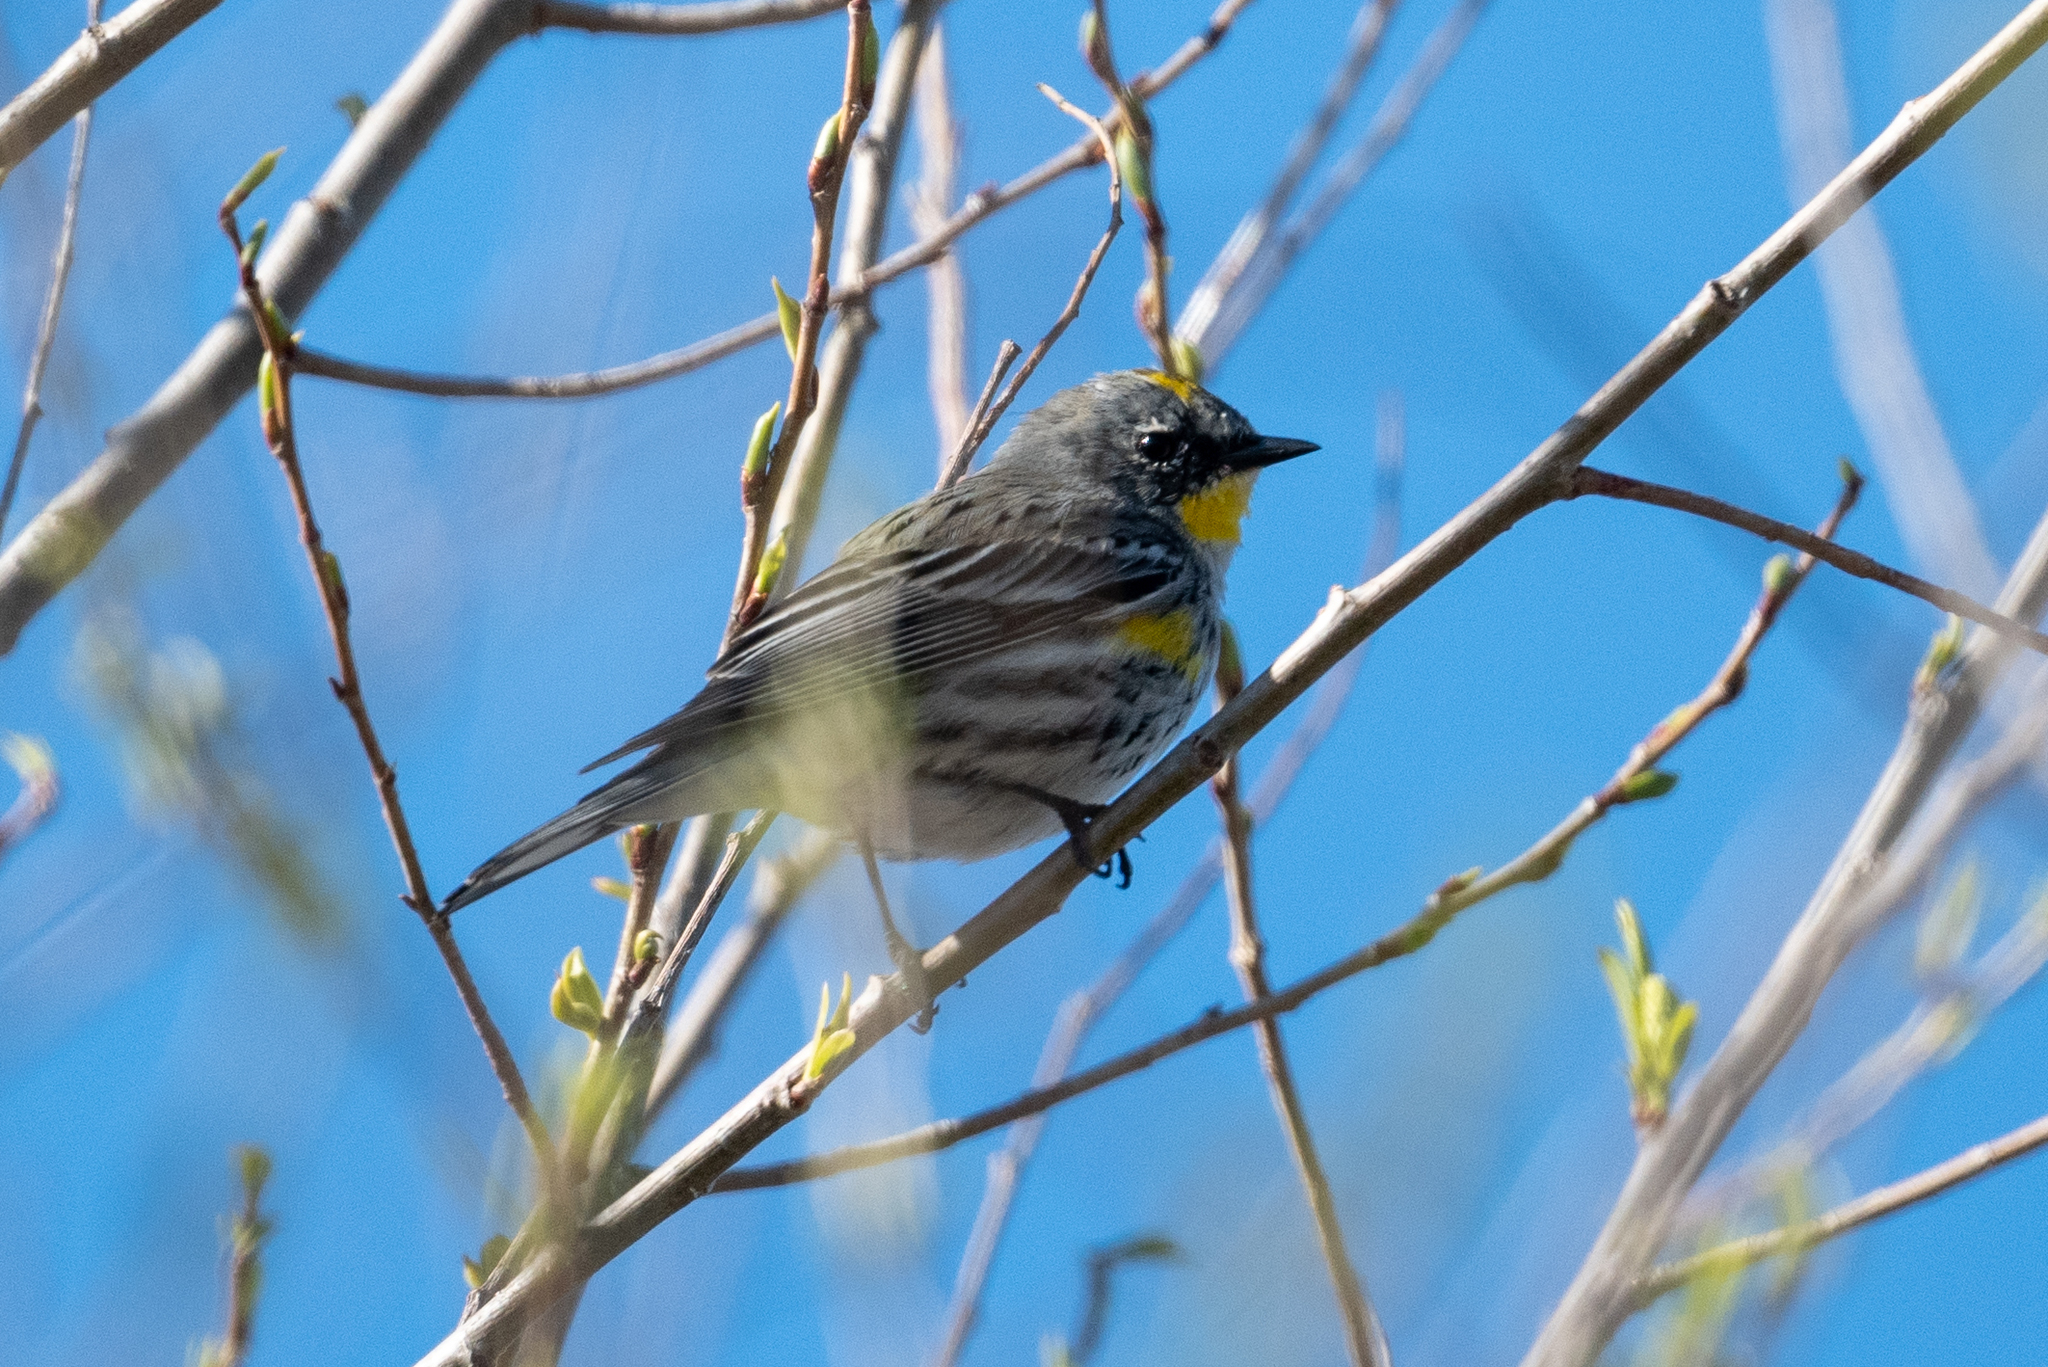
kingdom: Animalia
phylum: Chordata
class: Aves
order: Passeriformes
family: Parulidae
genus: Setophaga
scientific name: Setophaga coronata
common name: Myrtle warbler
